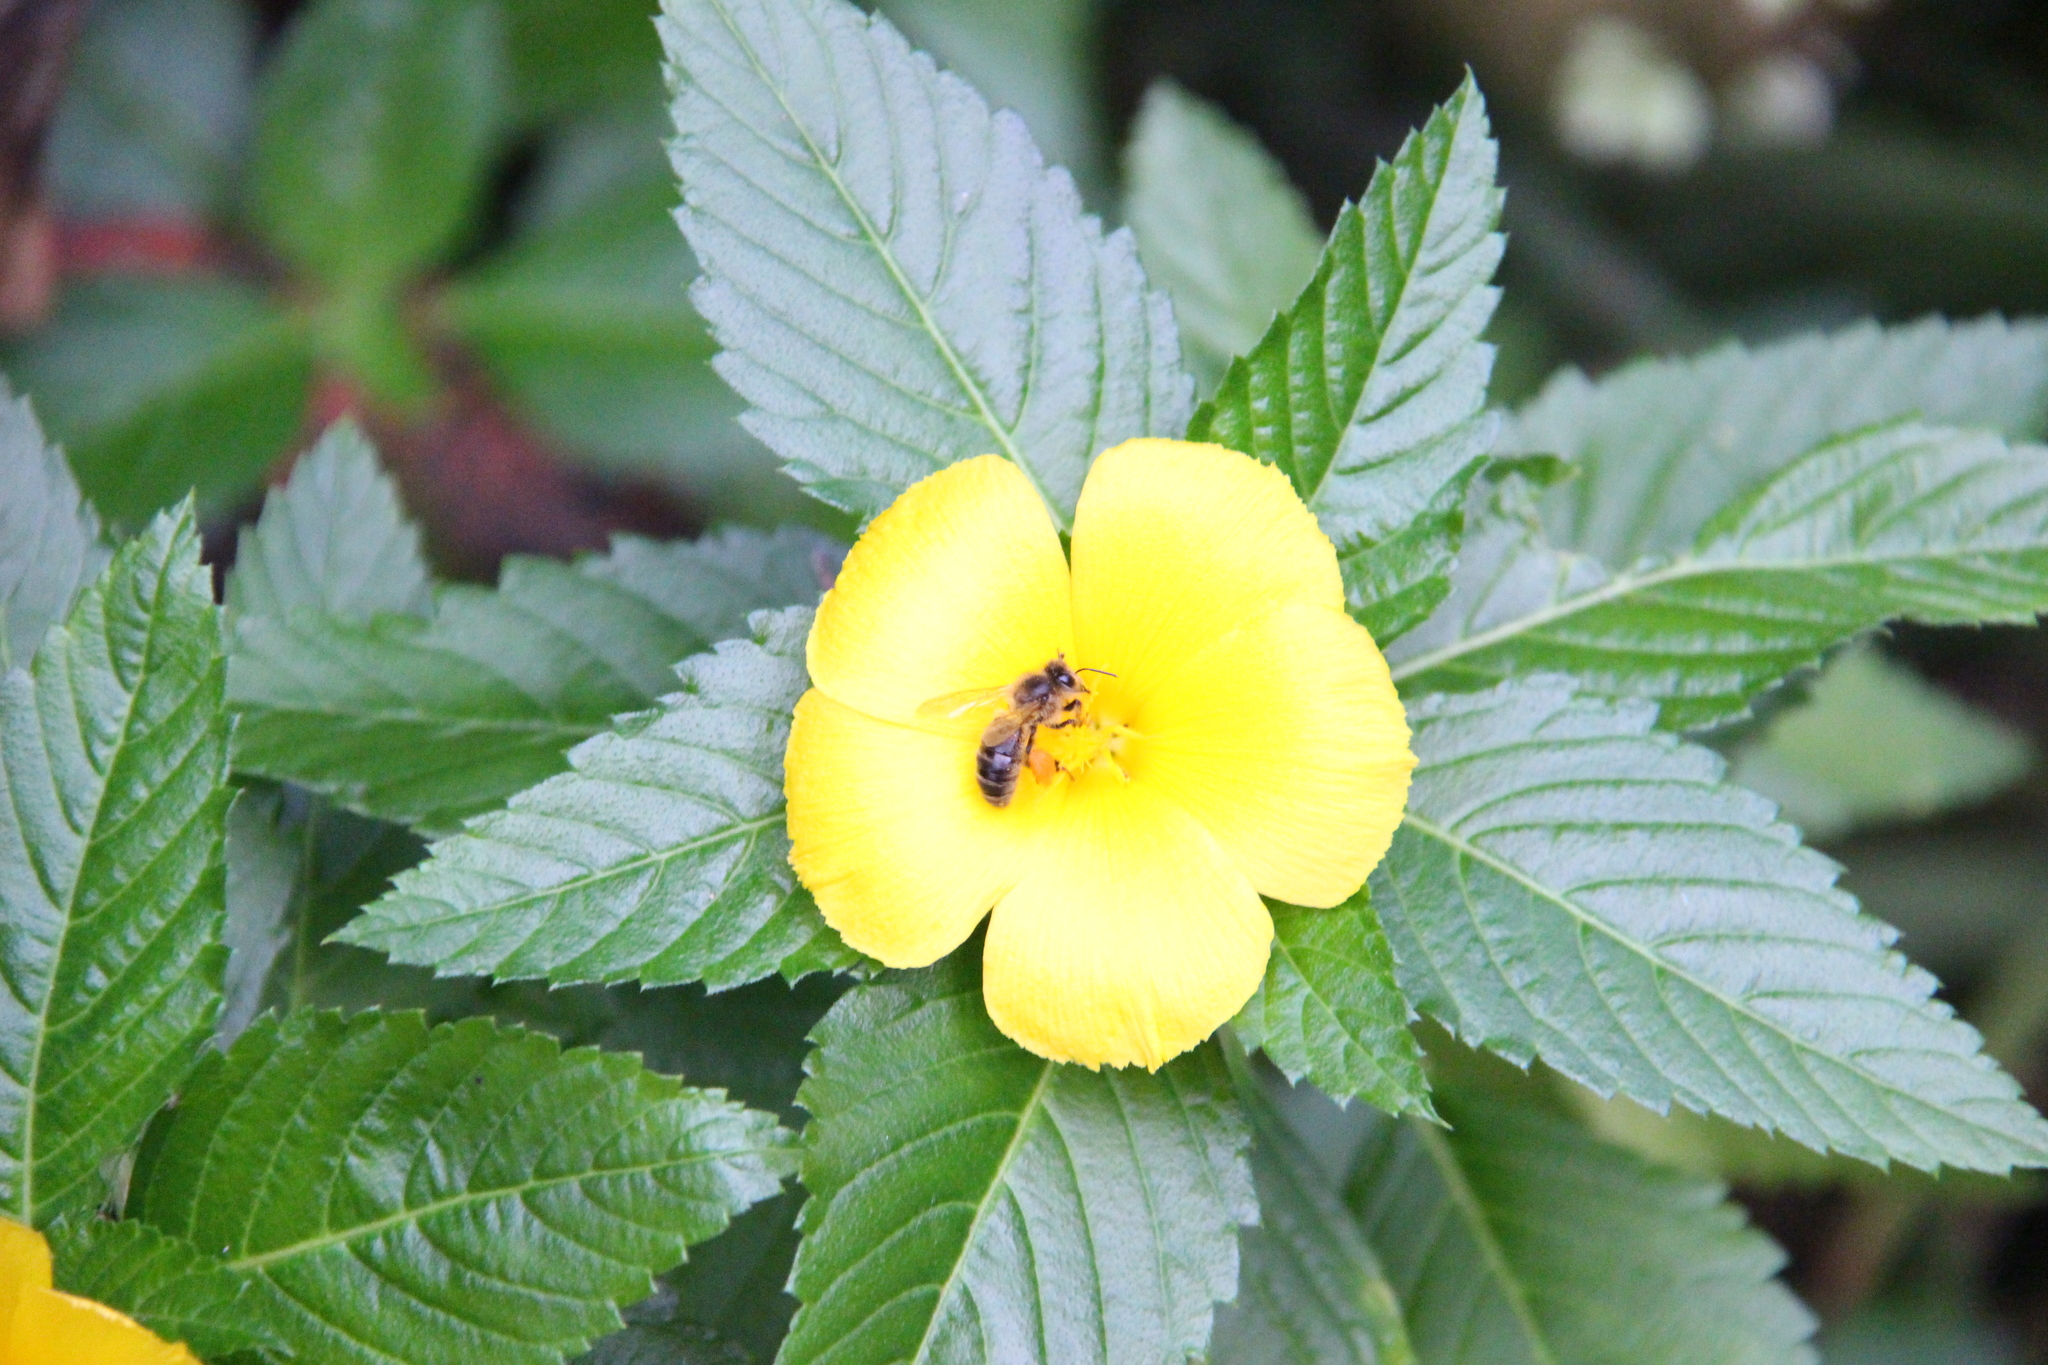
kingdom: Animalia
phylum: Arthropoda
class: Insecta
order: Hymenoptera
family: Apidae
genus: Apis
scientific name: Apis mellifera
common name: Honey bee
